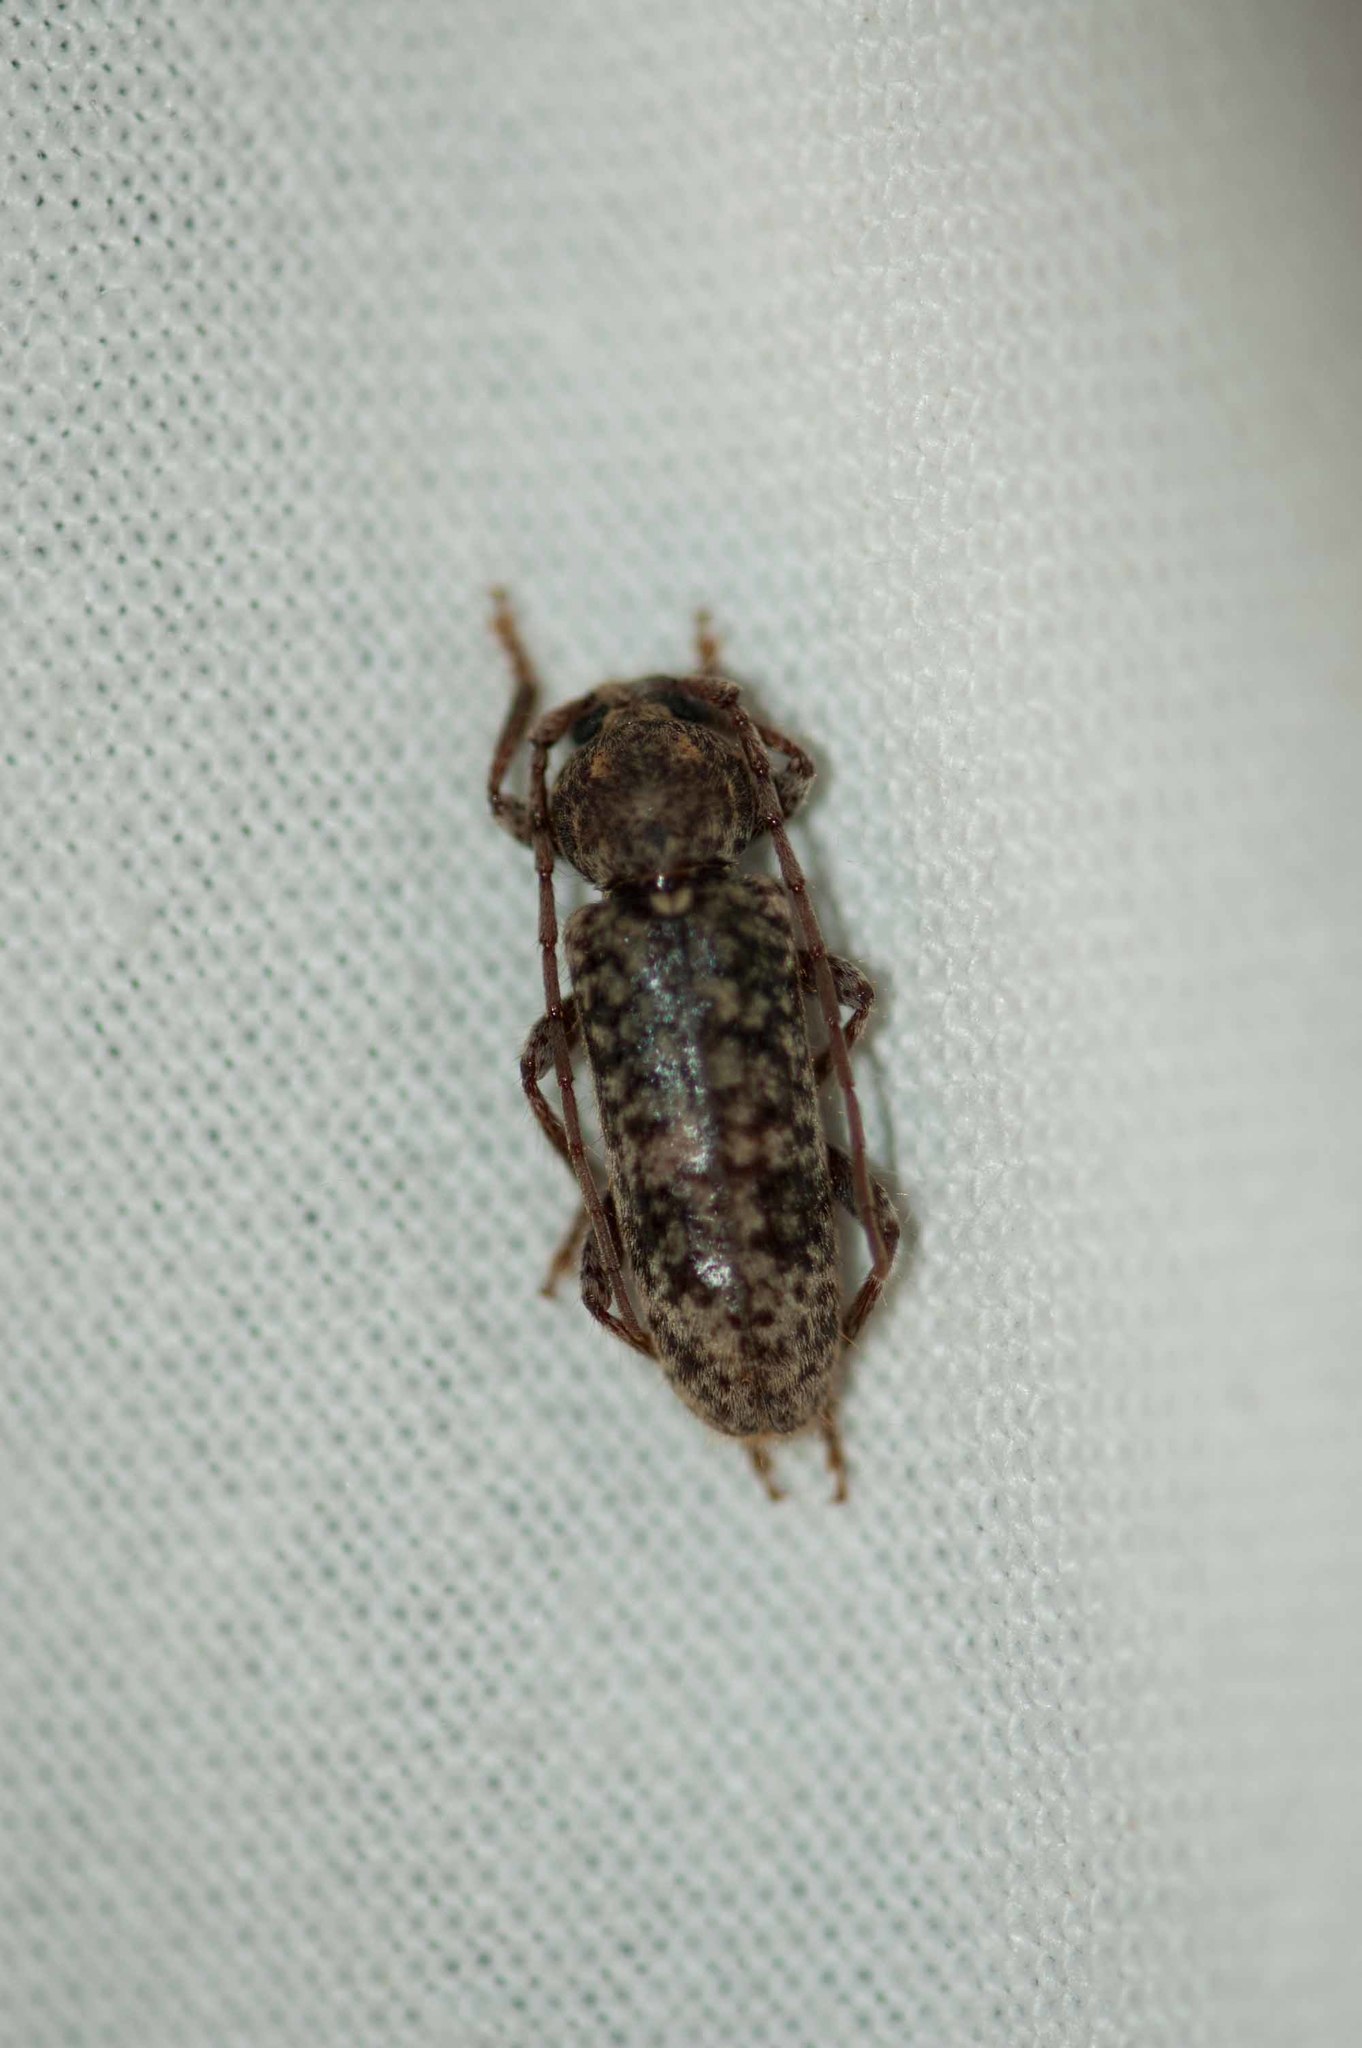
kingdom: Animalia
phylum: Arthropoda
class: Insecta
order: Coleoptera
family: Cerambycidae
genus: Trichoferus
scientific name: Trichoferus fasciculatus
